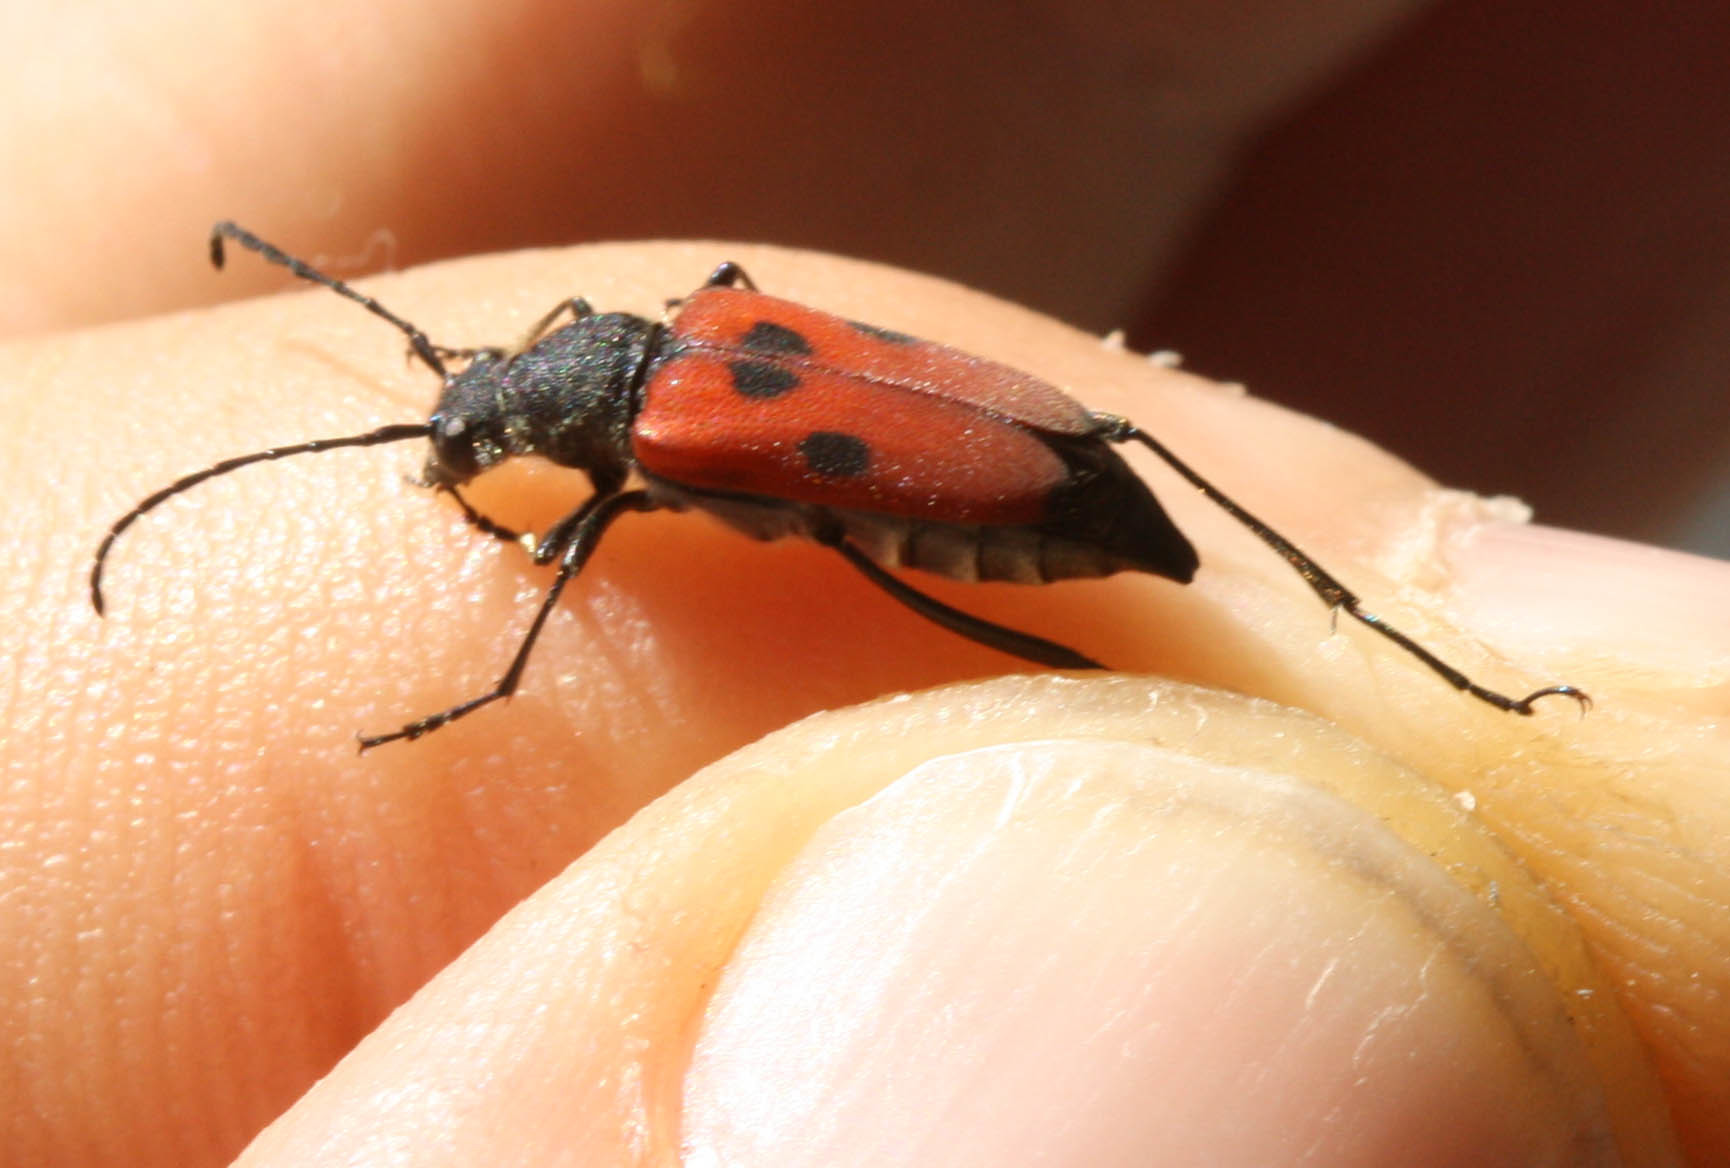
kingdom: Animalia
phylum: Arthropoda
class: Insecta
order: Coleoptera
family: Cerambycidae
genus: Anastrangalia
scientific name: Anastrangalia laetifica
